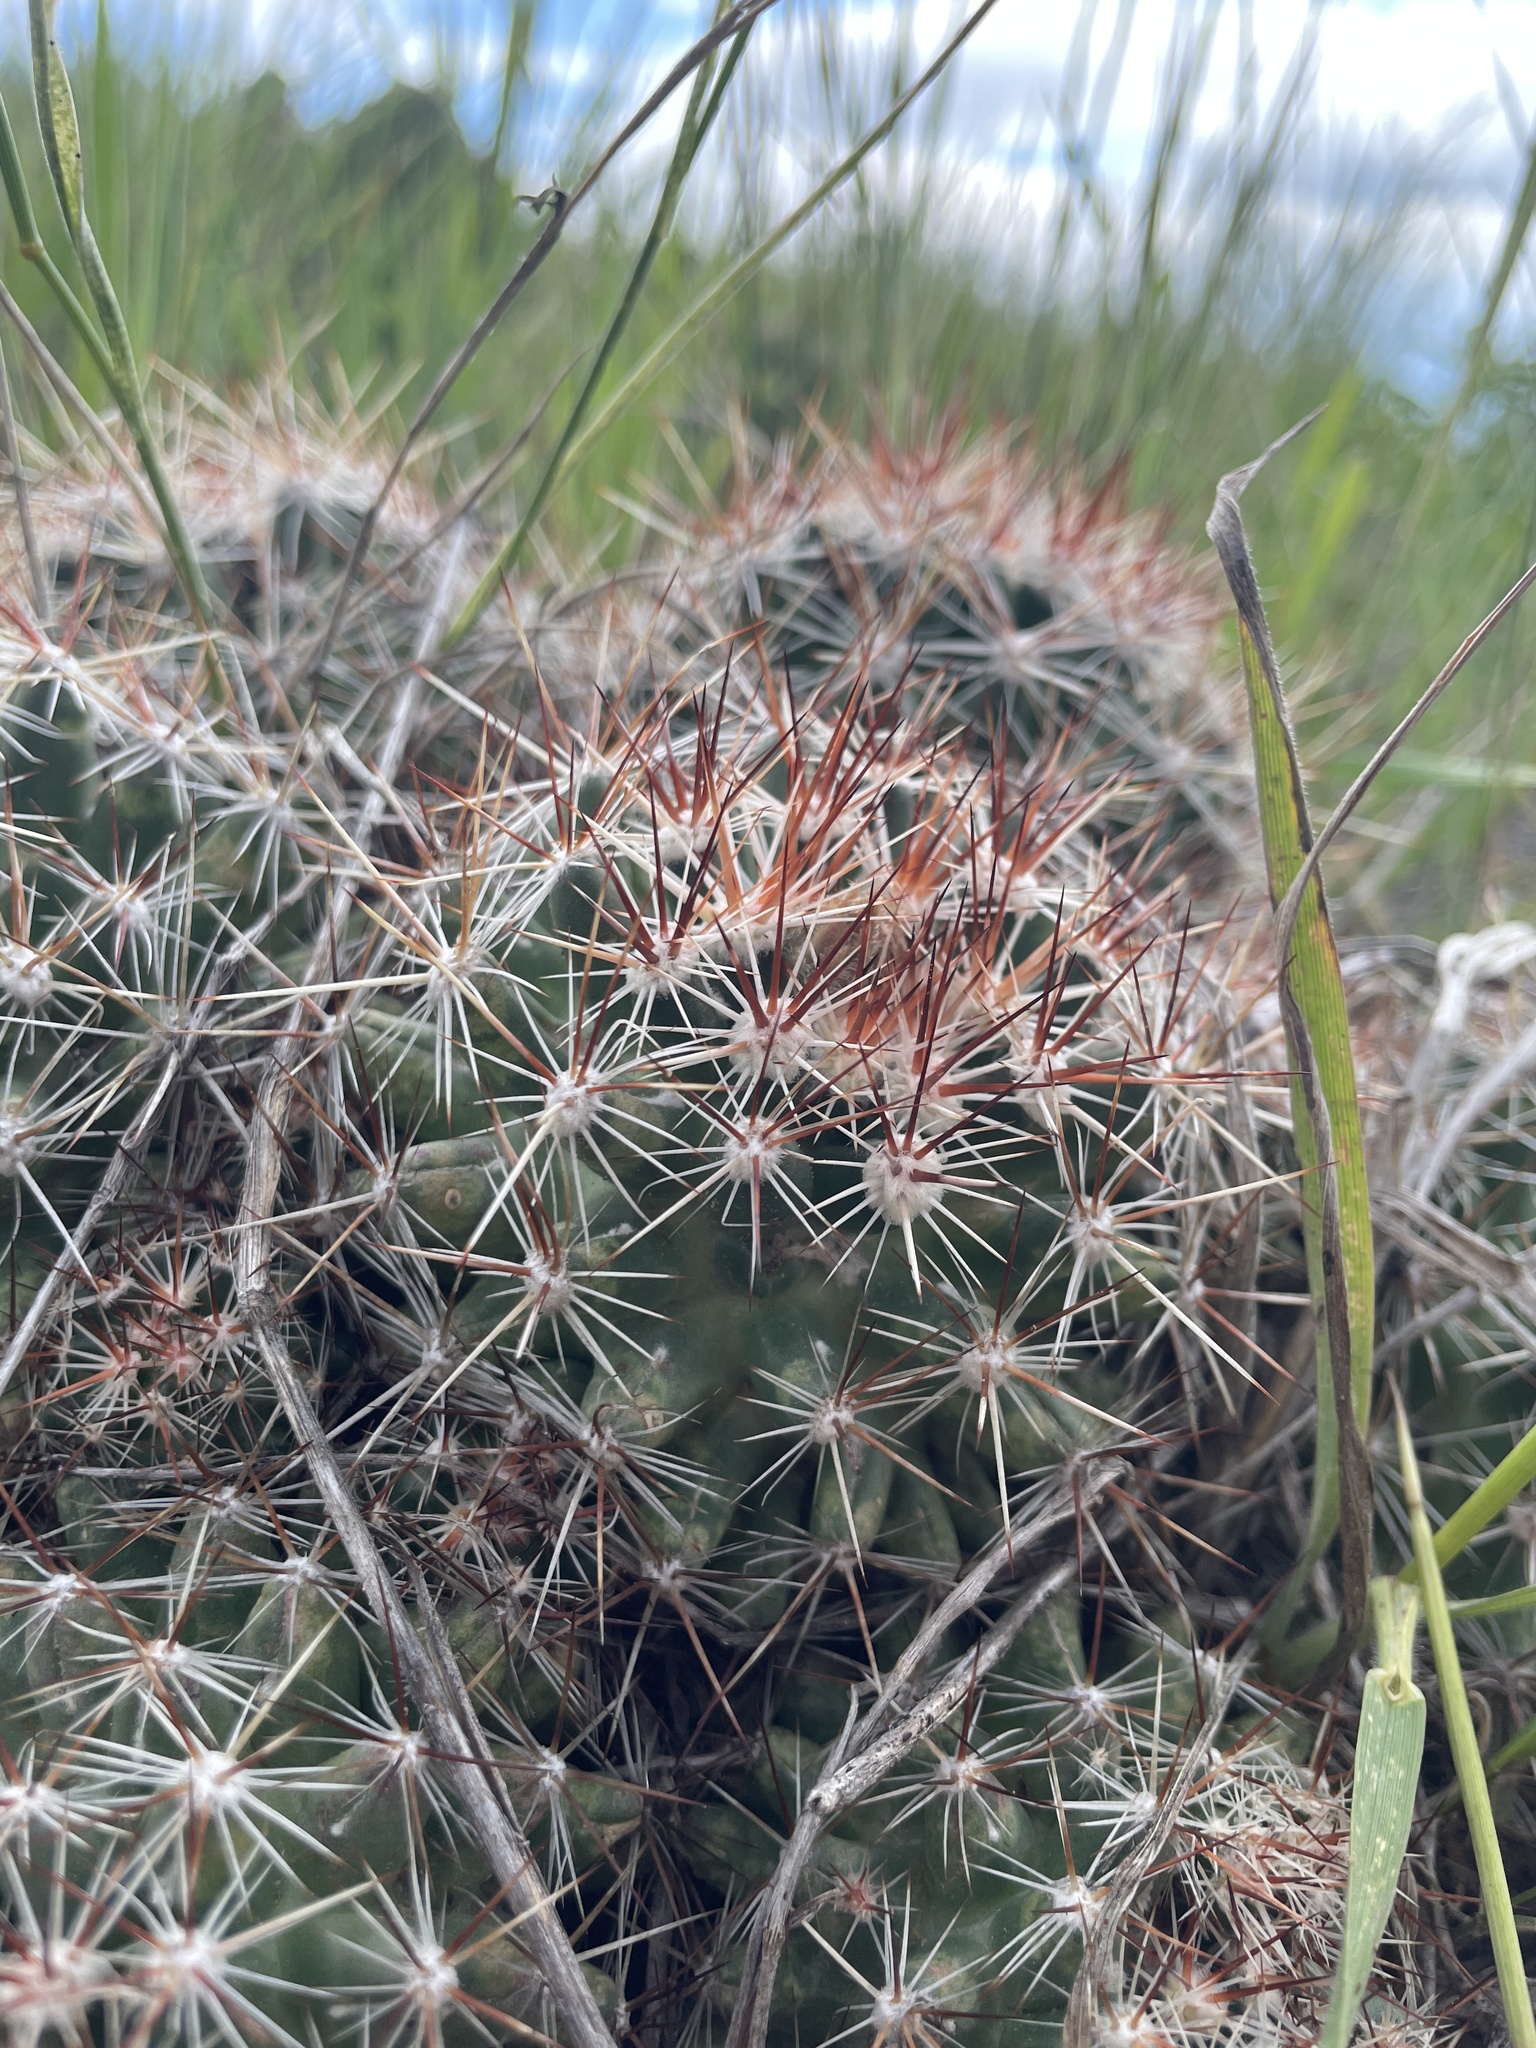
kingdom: Plantae
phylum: Tracheophyta
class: Magnoliopsida
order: Caryophyllales
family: Cactaceae
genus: Pelecyphora
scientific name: Pelecyphora vivipara
